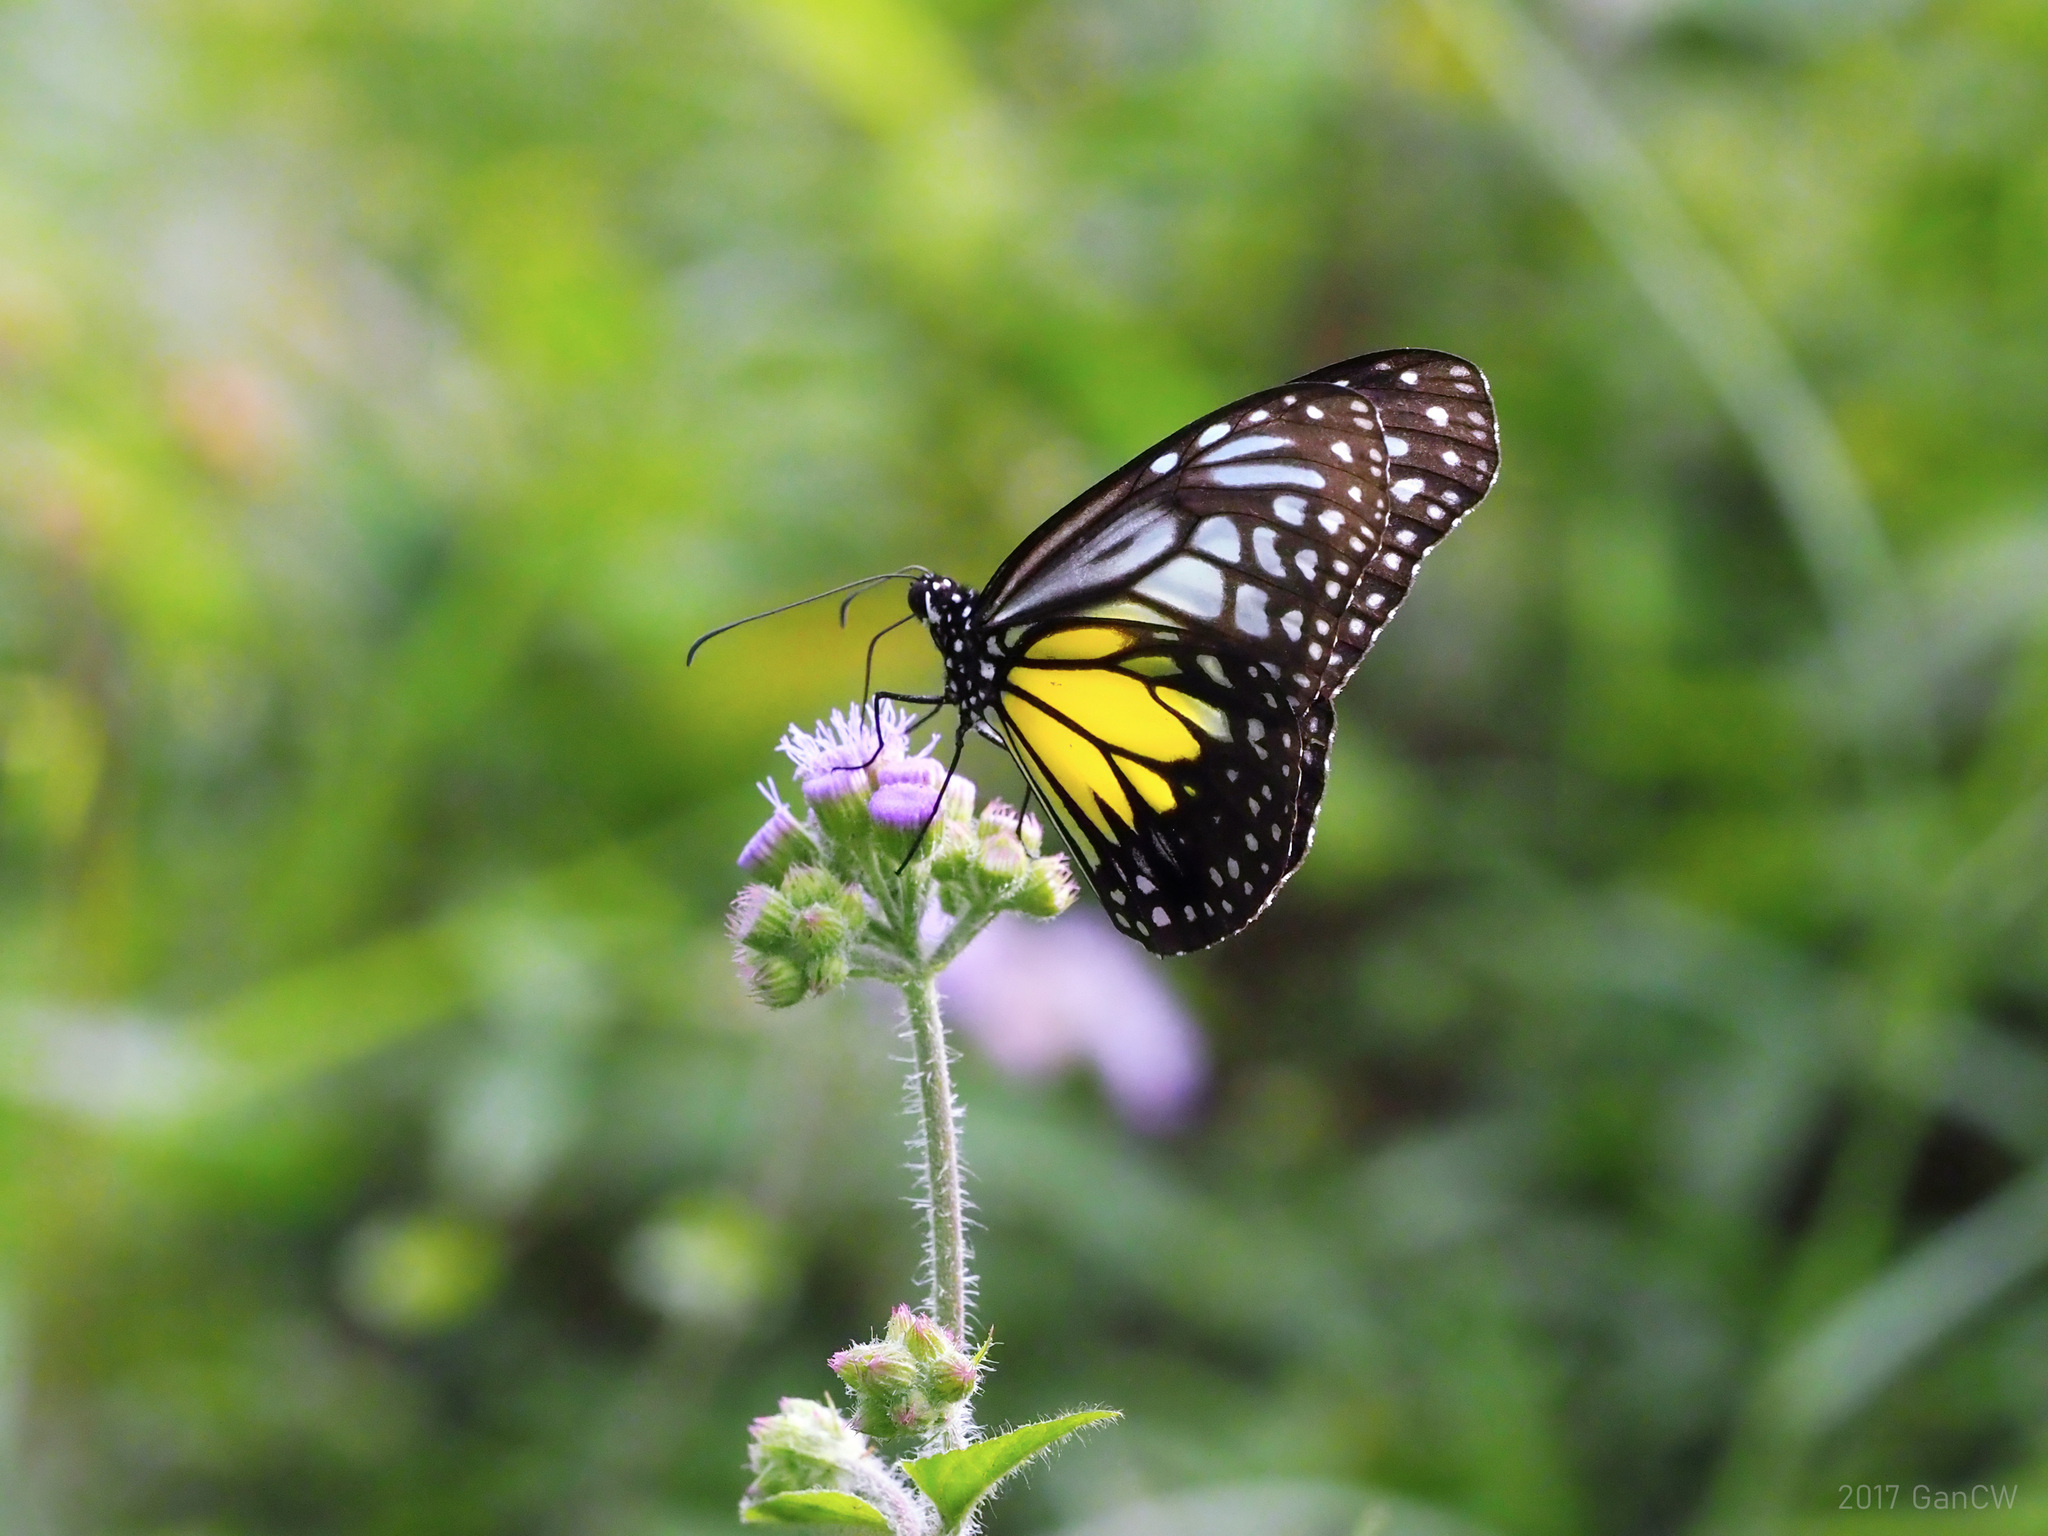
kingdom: Animalia
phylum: Arthropoda
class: Insecta
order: Lepidoptera
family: Nymphalidae
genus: Parantica
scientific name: Parantica aspasia
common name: Yellow glassy tiger
